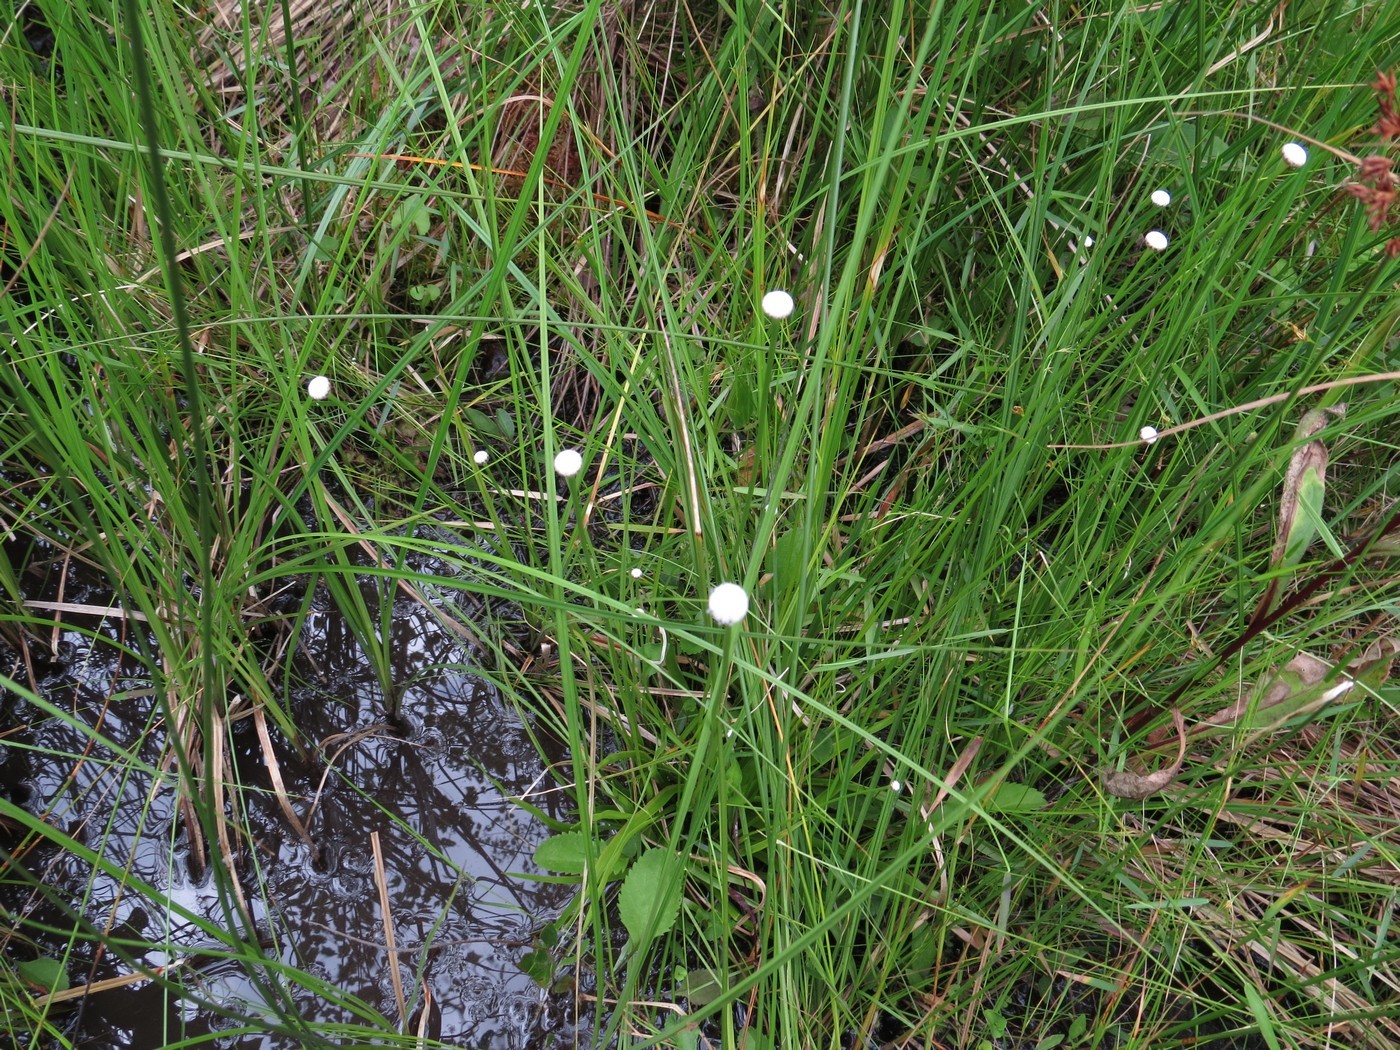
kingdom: Plantae
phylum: Tracheophyta
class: Liliopsida
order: Poales
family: Eriocaulaceae
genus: Eriocaulon
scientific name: Eriocaulon decangulare
